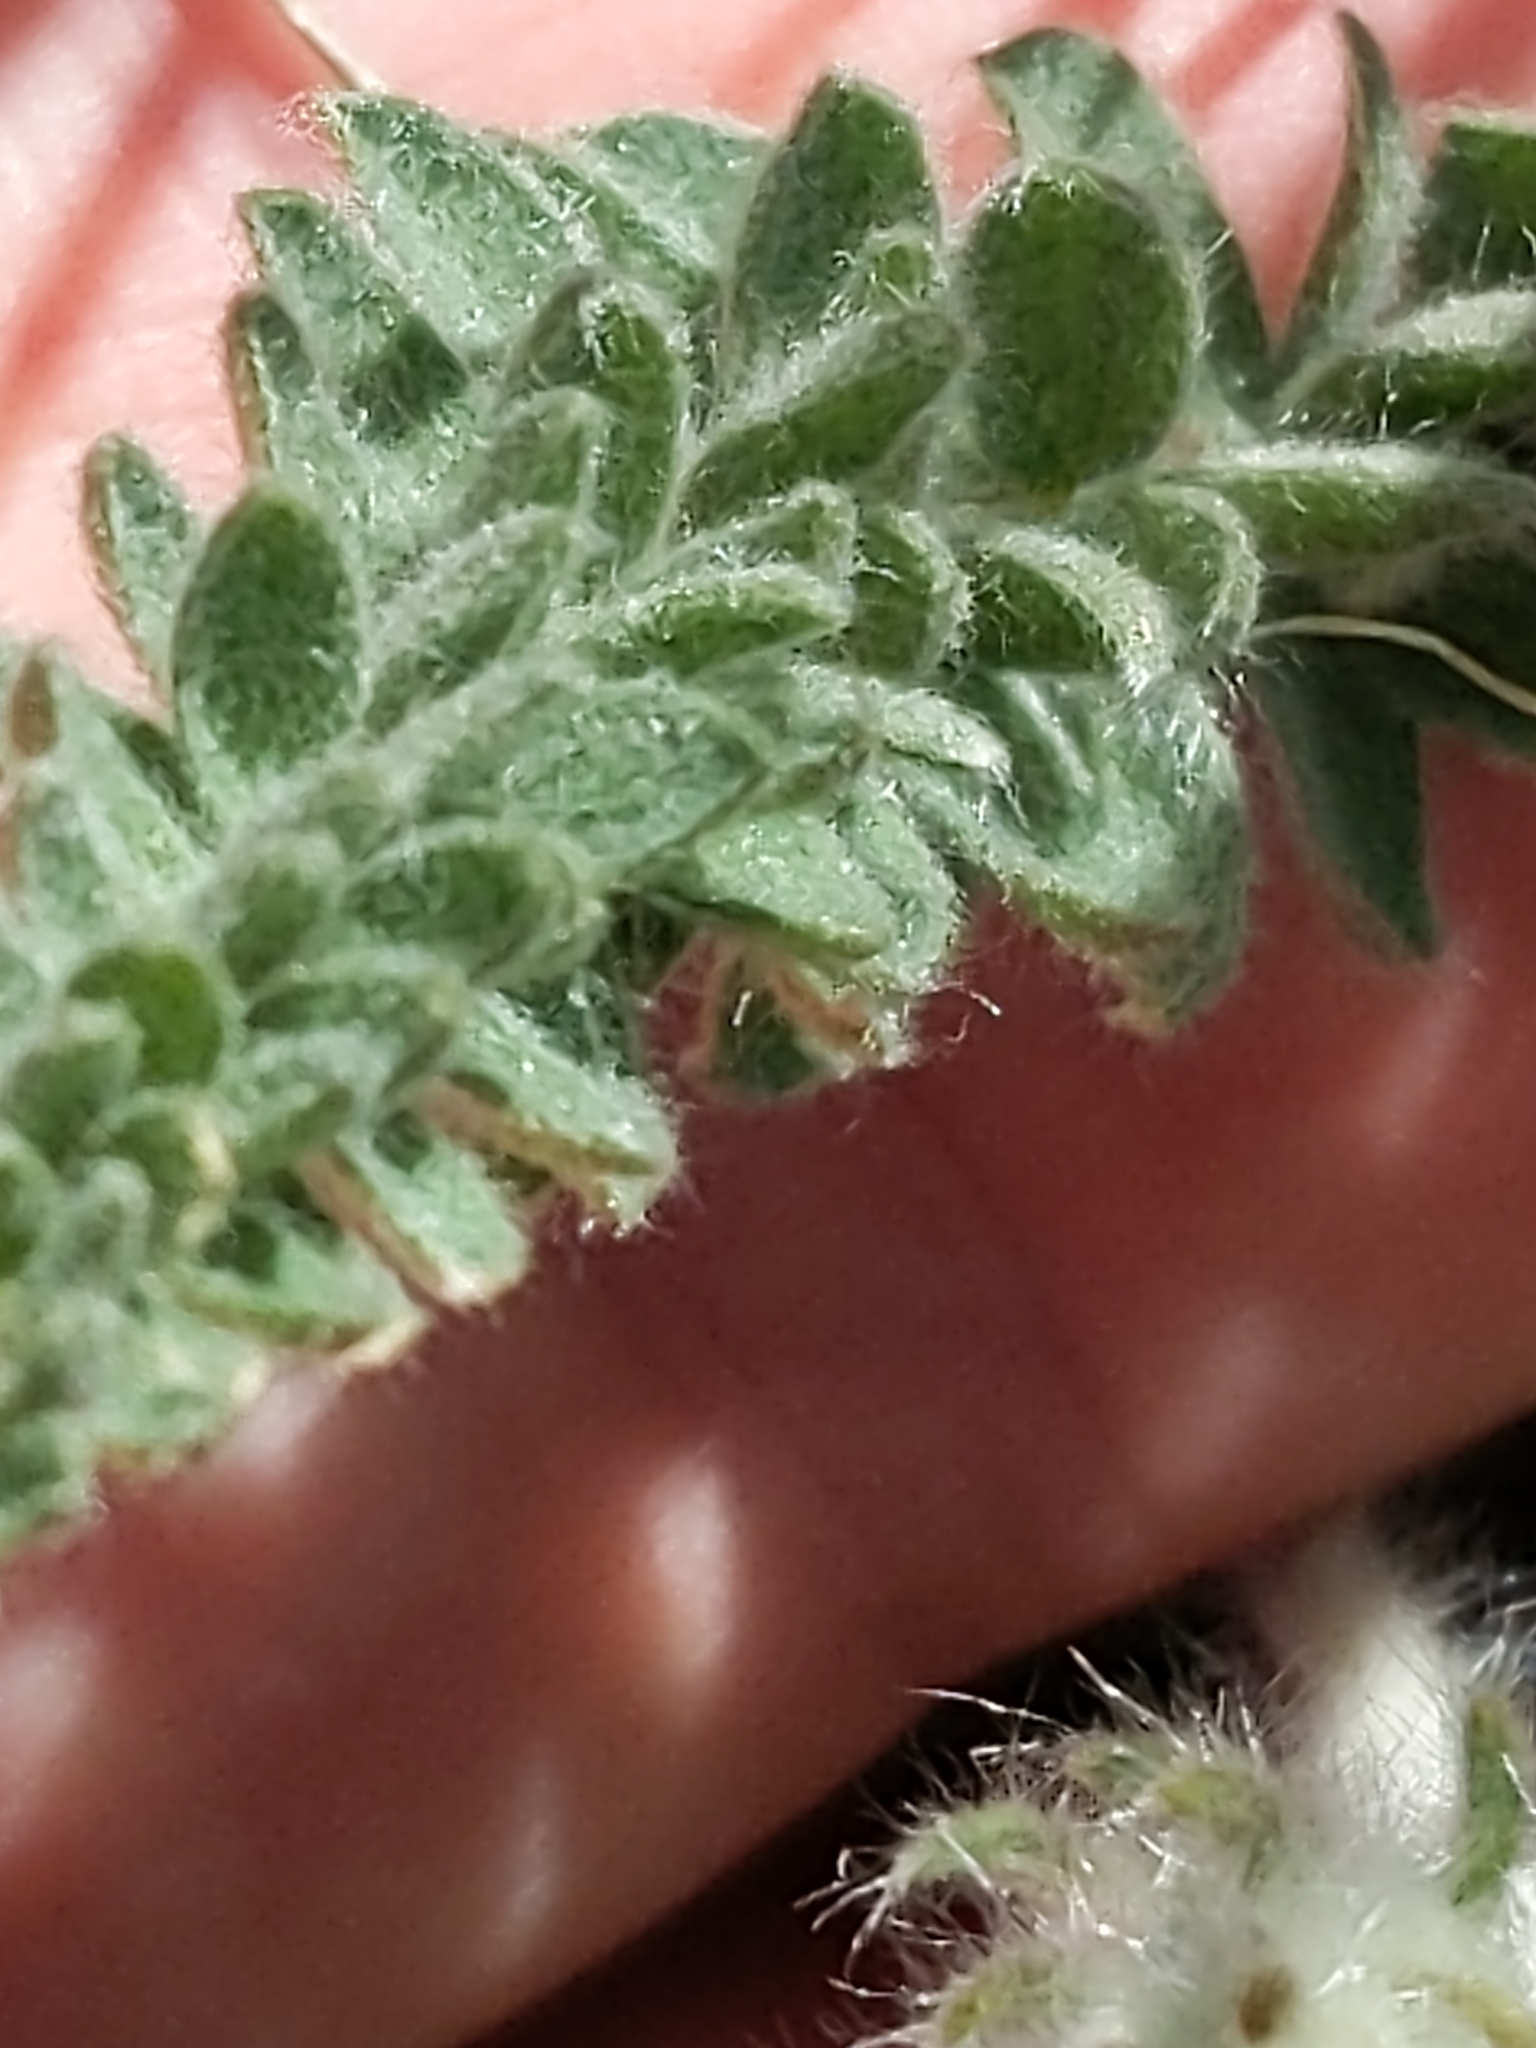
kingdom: Plantae
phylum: Tracheophyta
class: Magnoliopsida
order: Fabales
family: Fabaceae
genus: Oxytropis
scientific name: Oxytropis splendens
